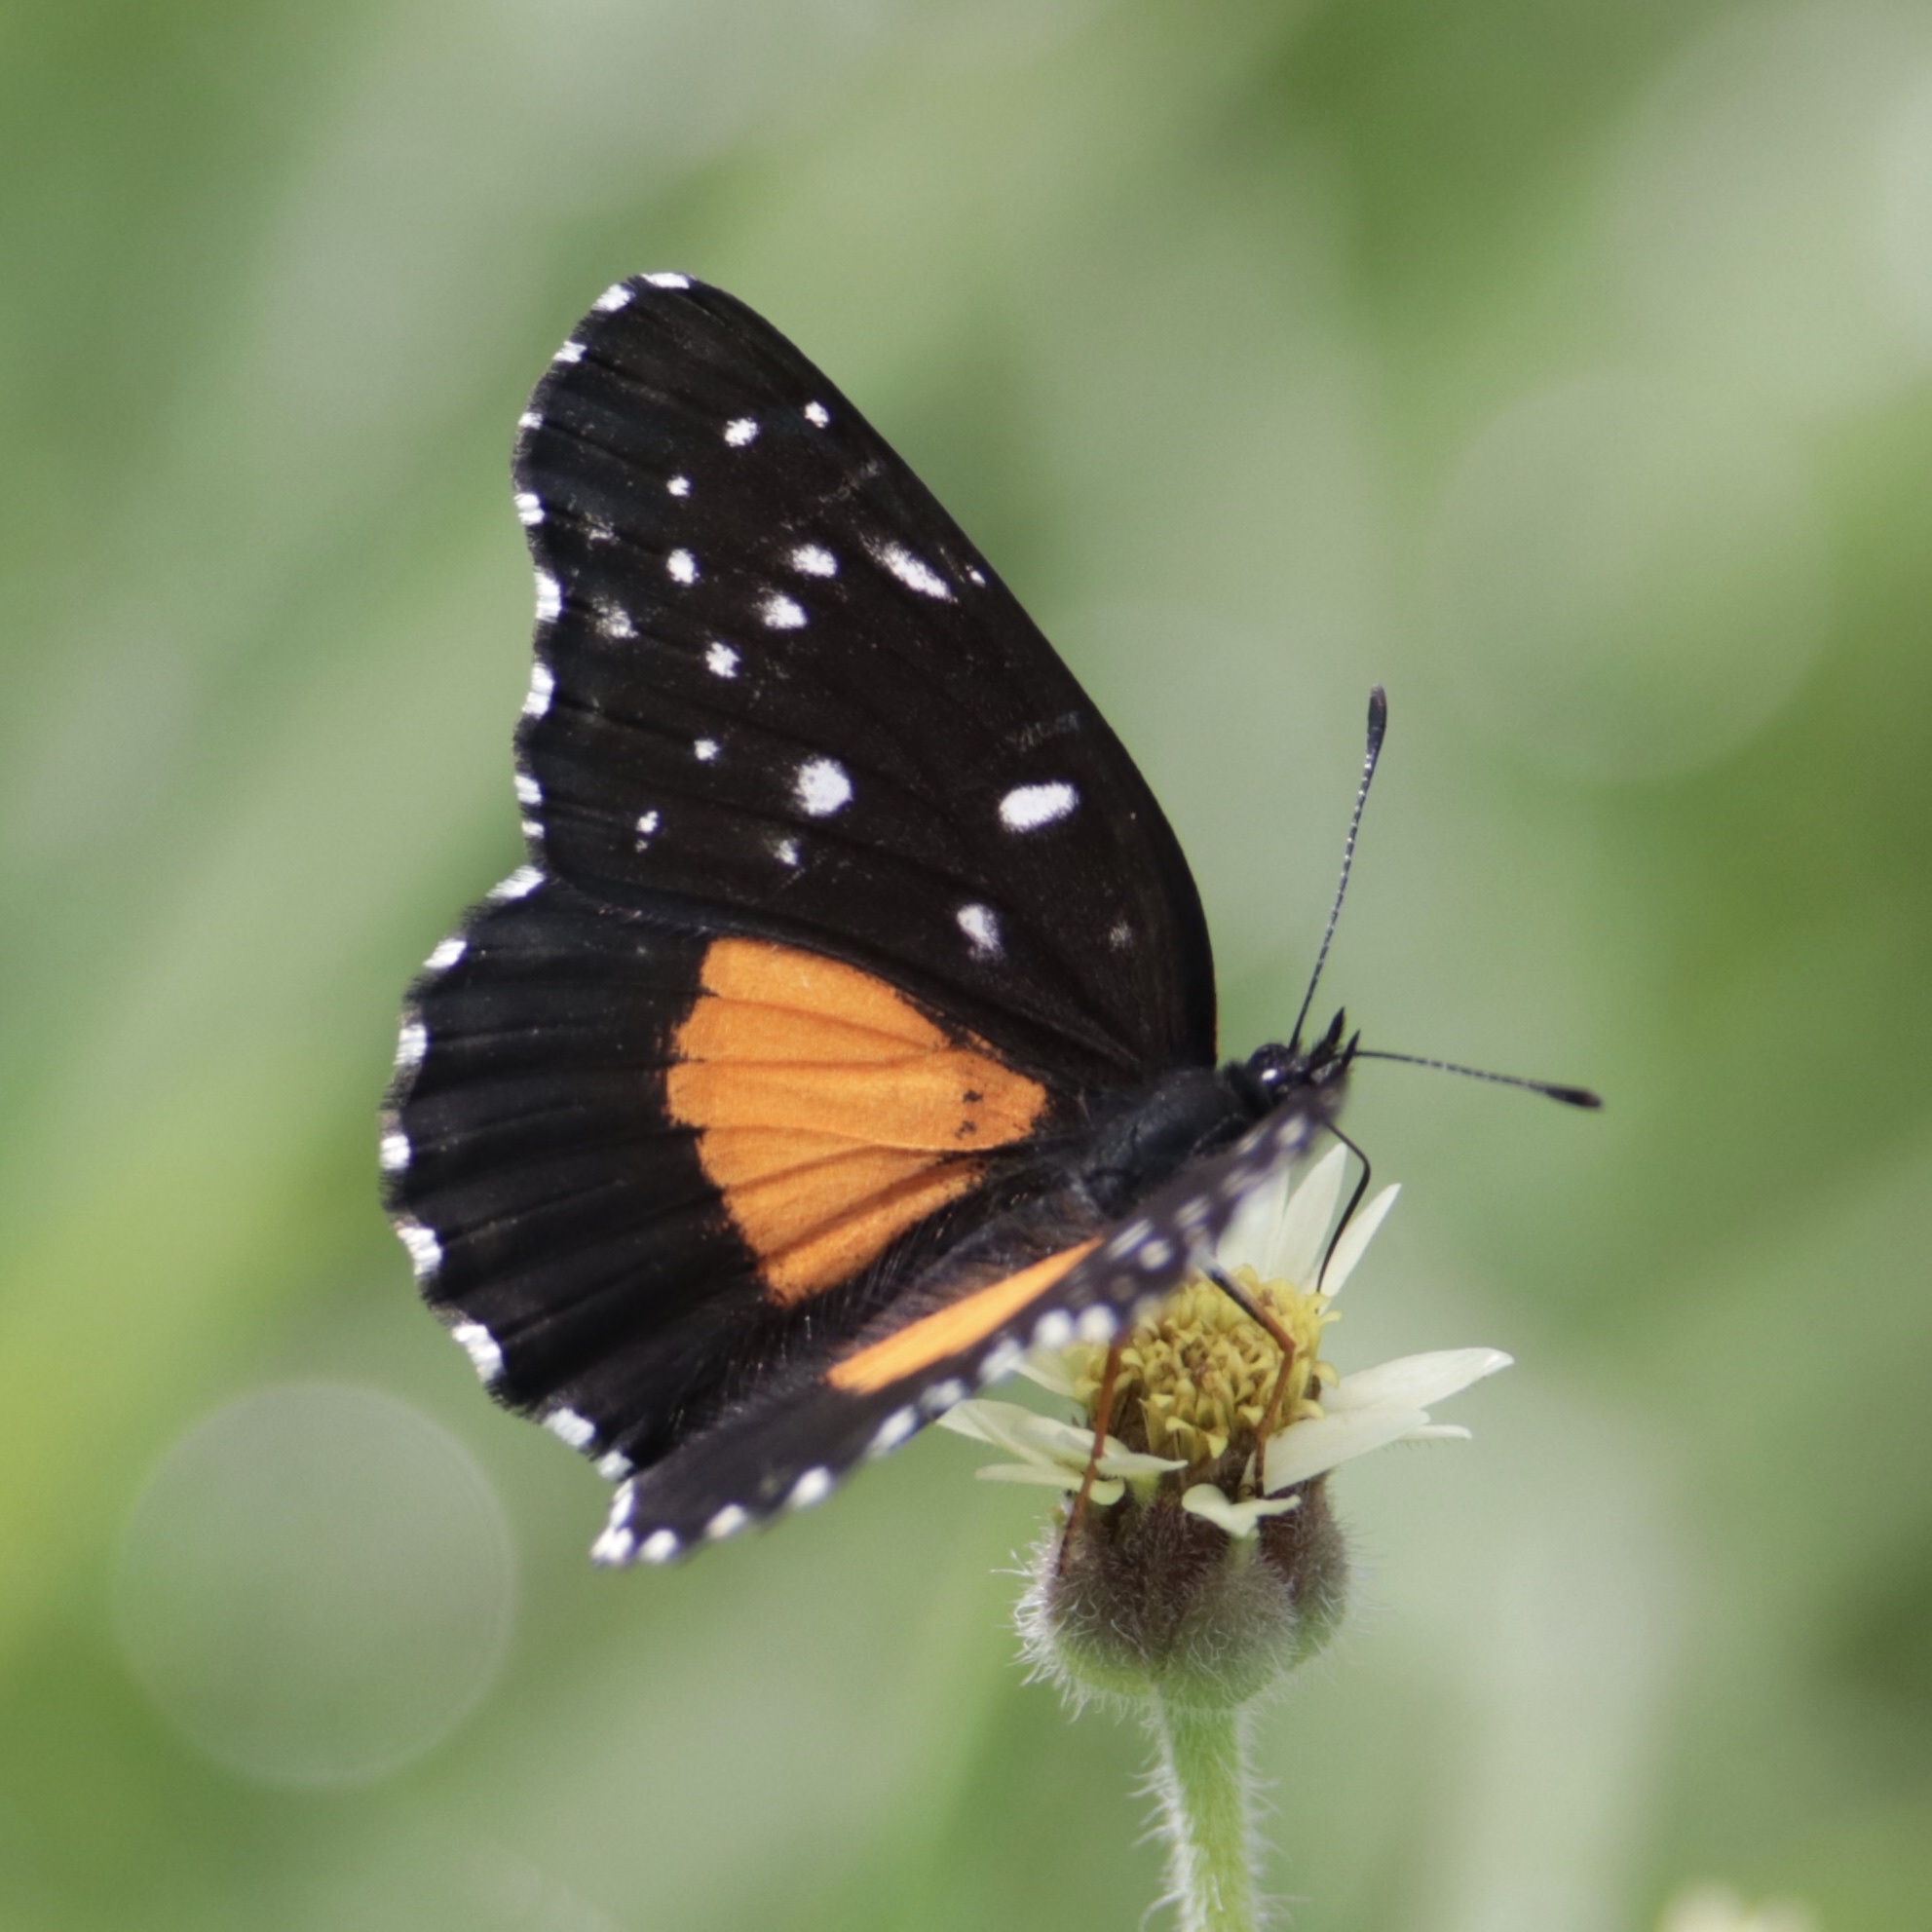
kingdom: Animalia
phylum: Arthropoda
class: Insecta
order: Lepidoptera
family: Nymphalidae
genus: Chlosyne
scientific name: Chlosyne lacinia
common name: Bordered patch
